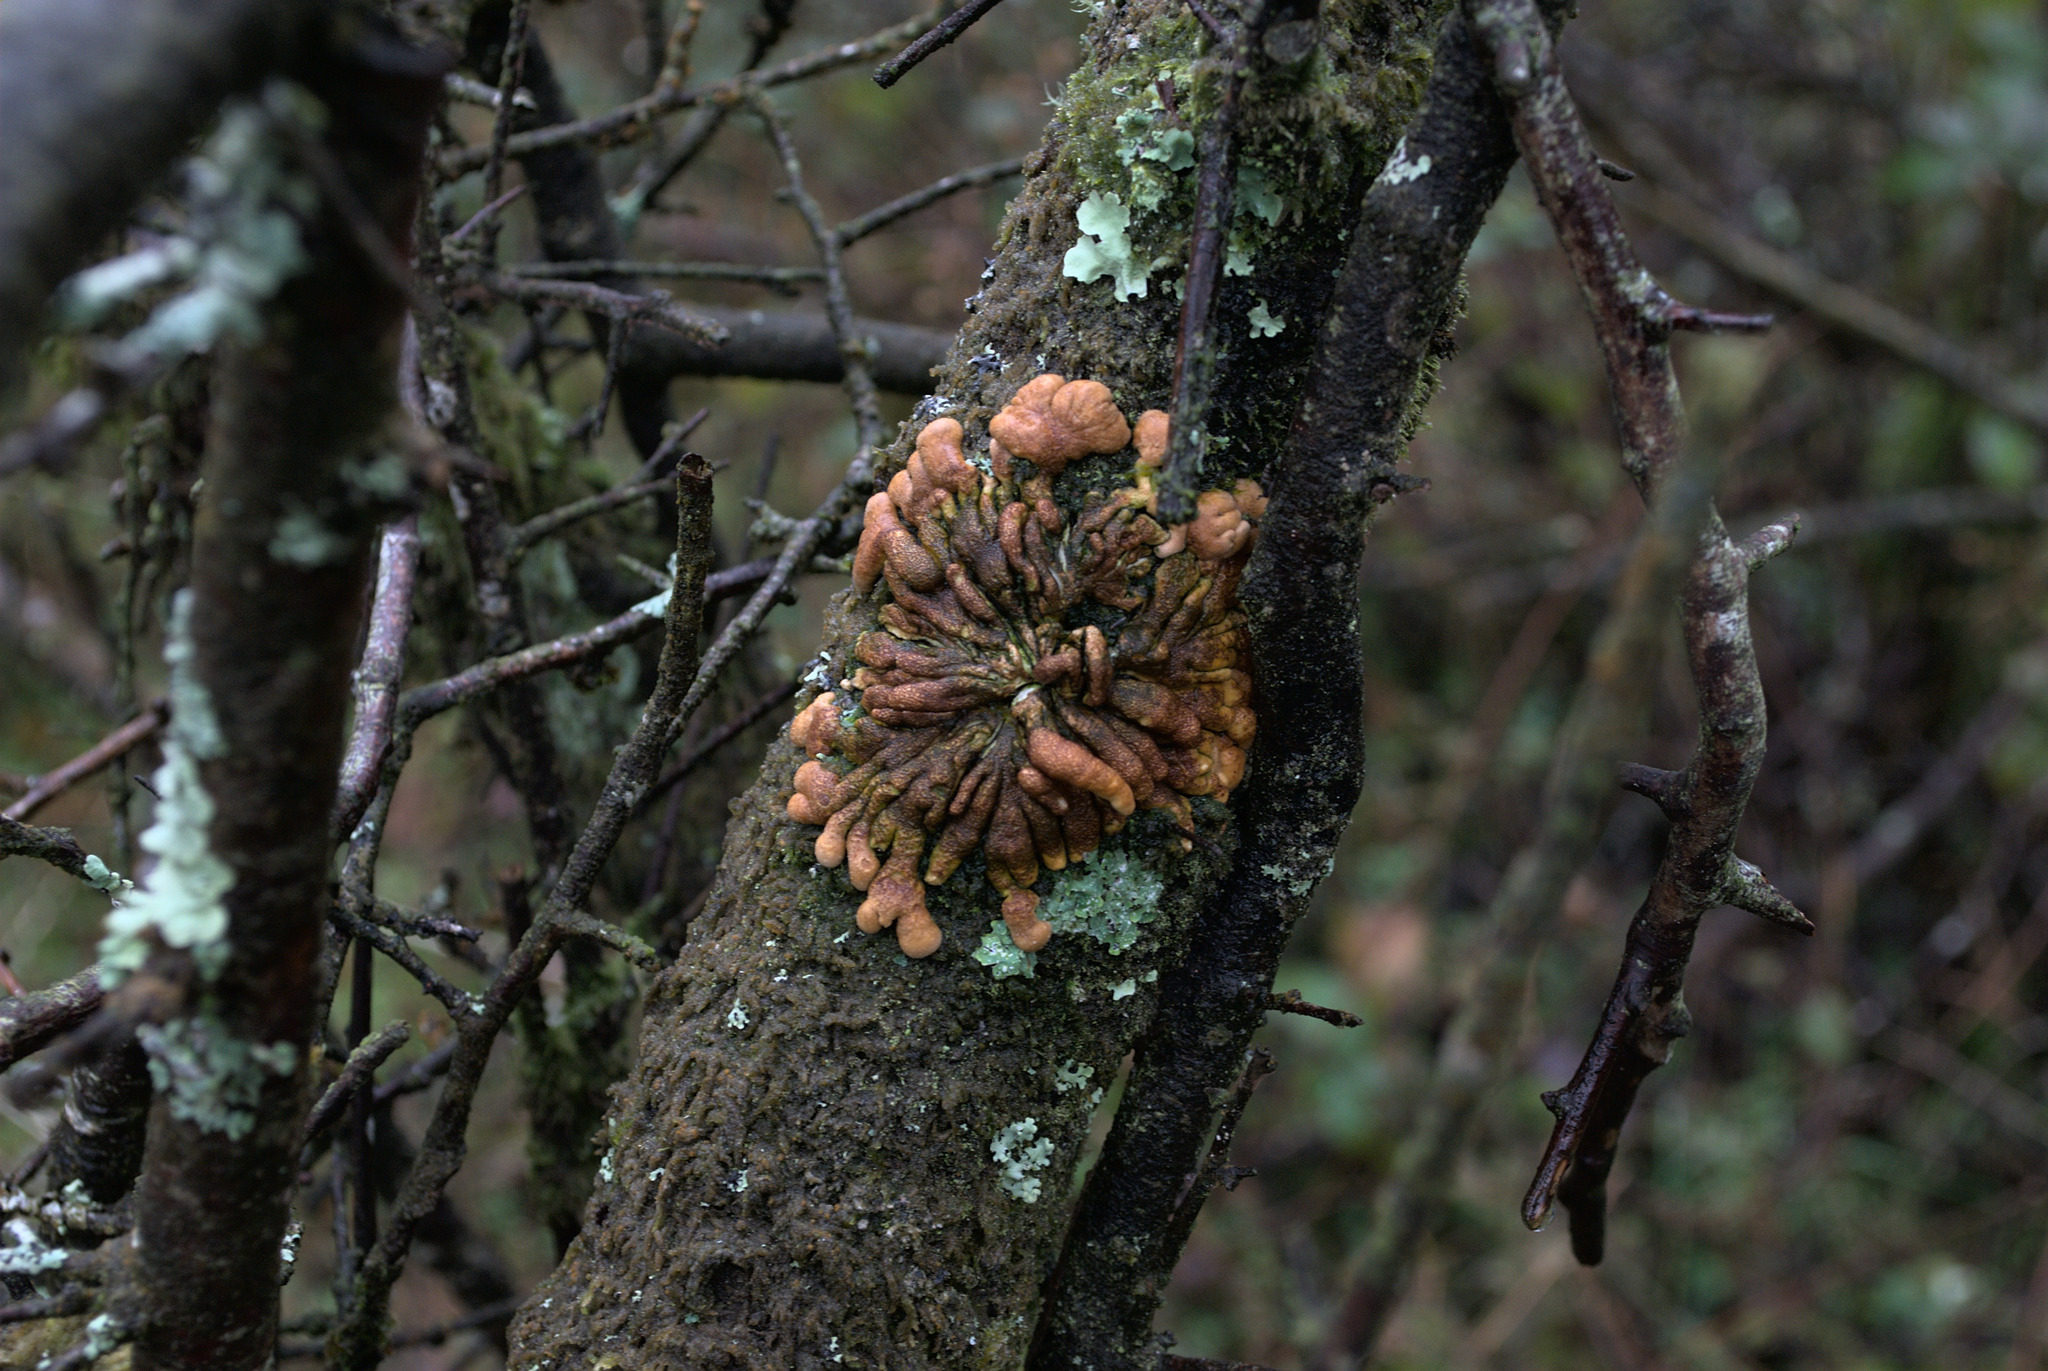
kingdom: Fungi
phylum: Ascomycota
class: Sordariomycetes
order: Hypocreales
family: Hypocreaceae
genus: Hypocreopsis
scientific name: Hypocreopsis rhododendri
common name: Hazel gloves
